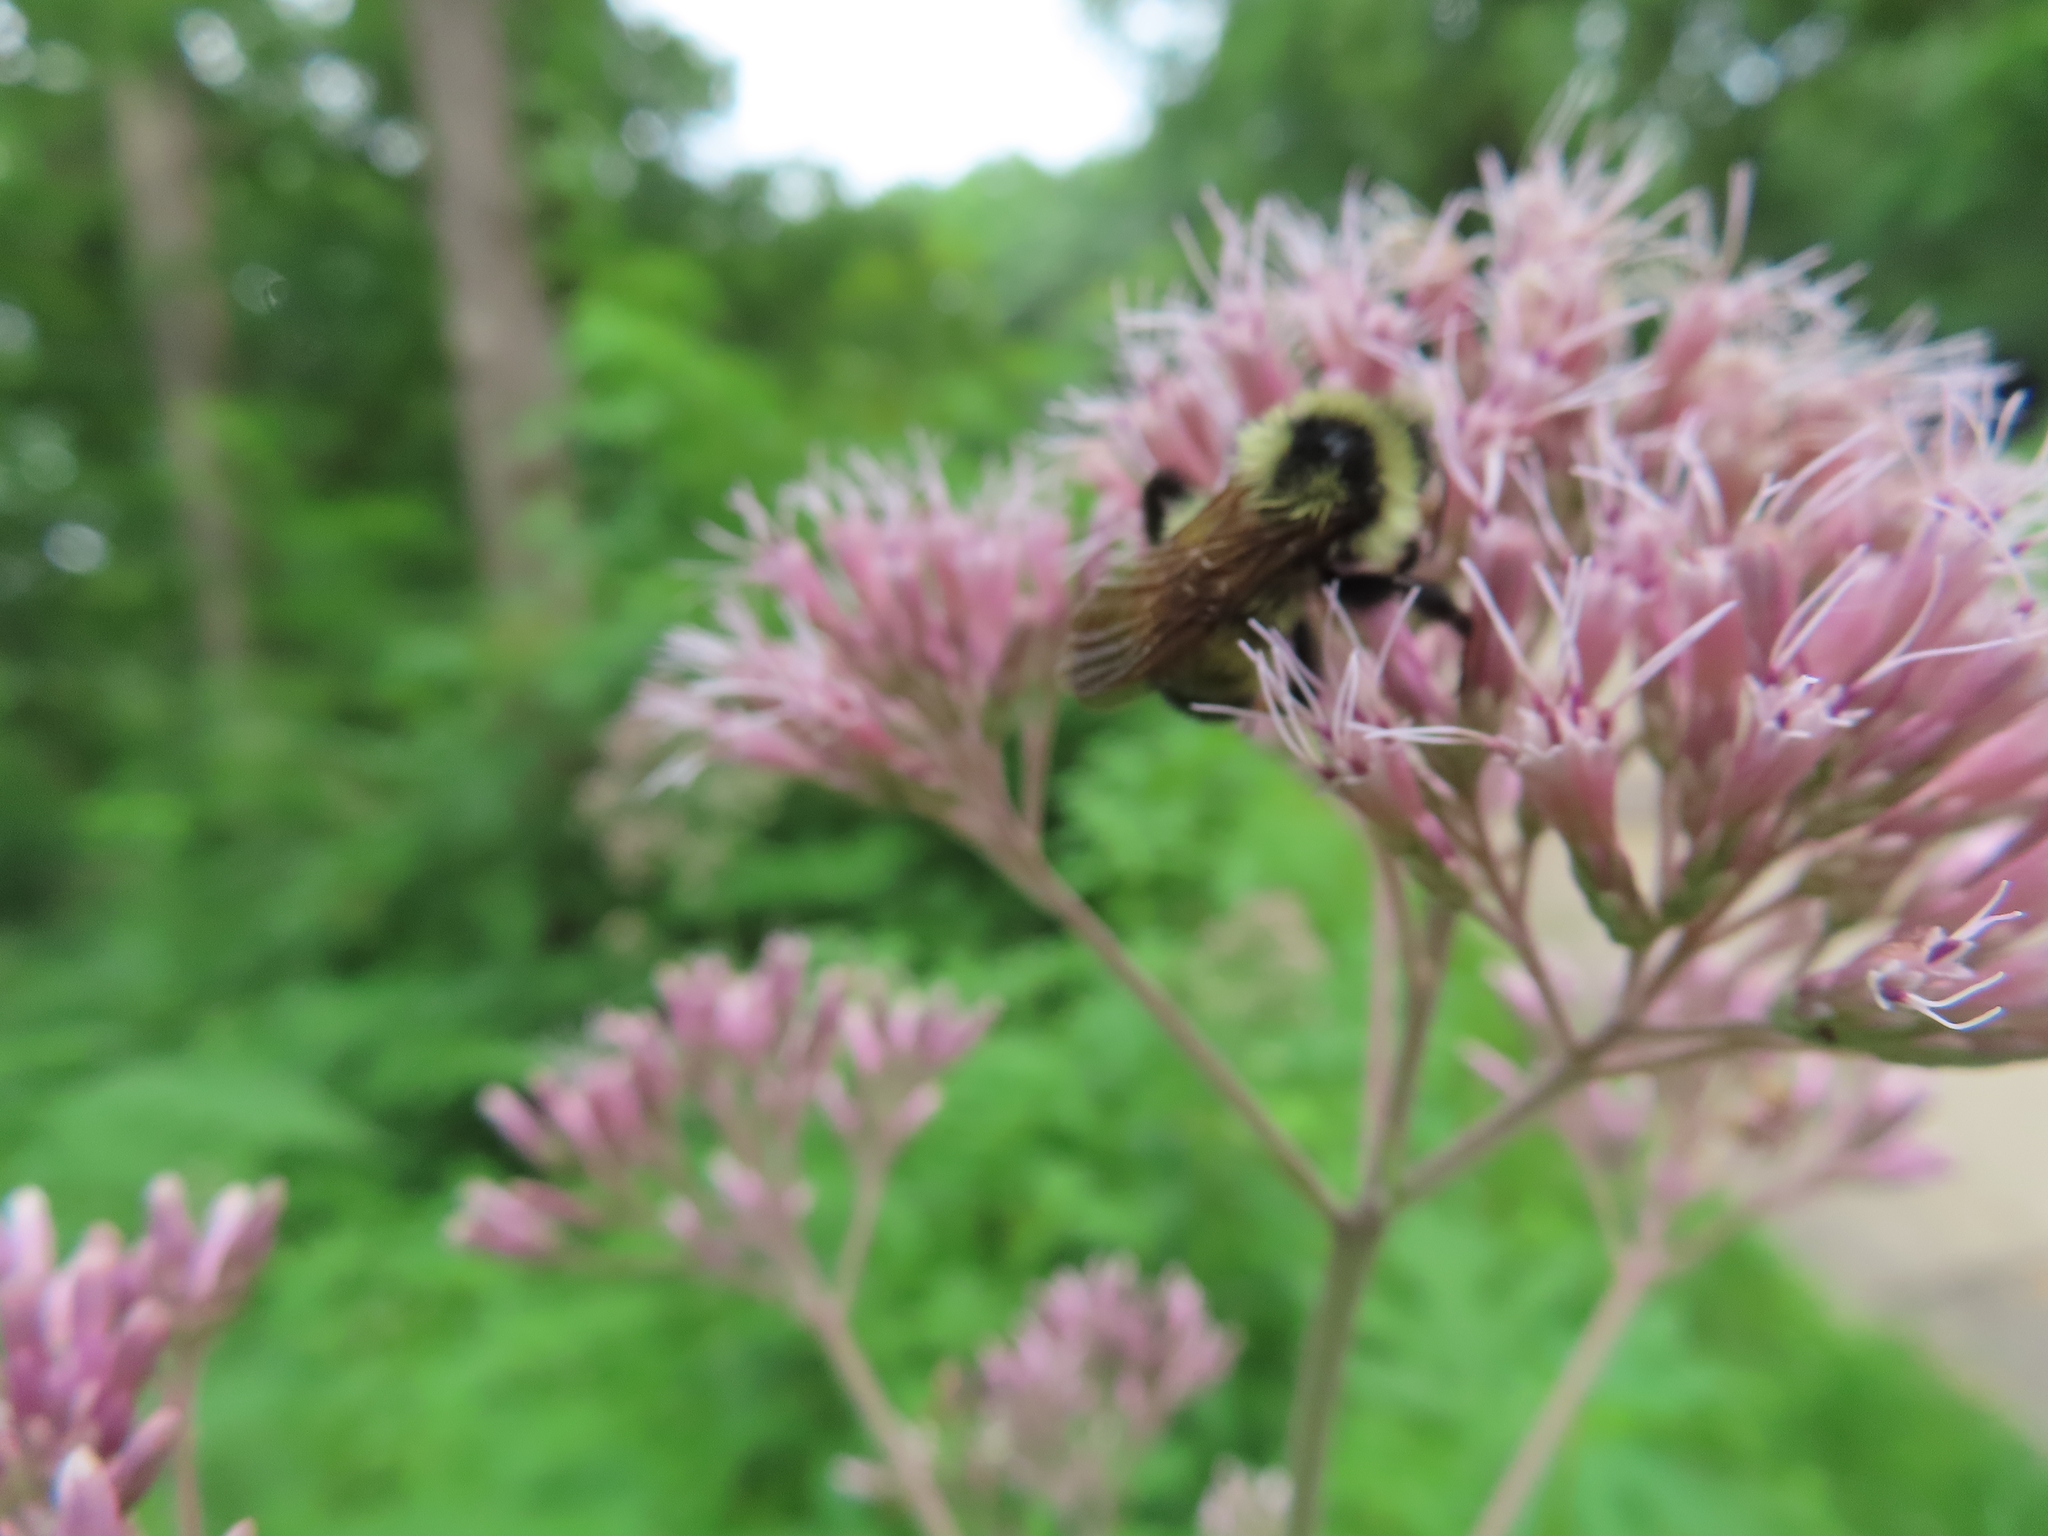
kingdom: Animalia
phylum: Arthropoda
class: Insecta
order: Hymenoptera
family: Apidae
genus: Bombus
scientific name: Bombus citrinus
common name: Lemon cuckoo bumble bee
